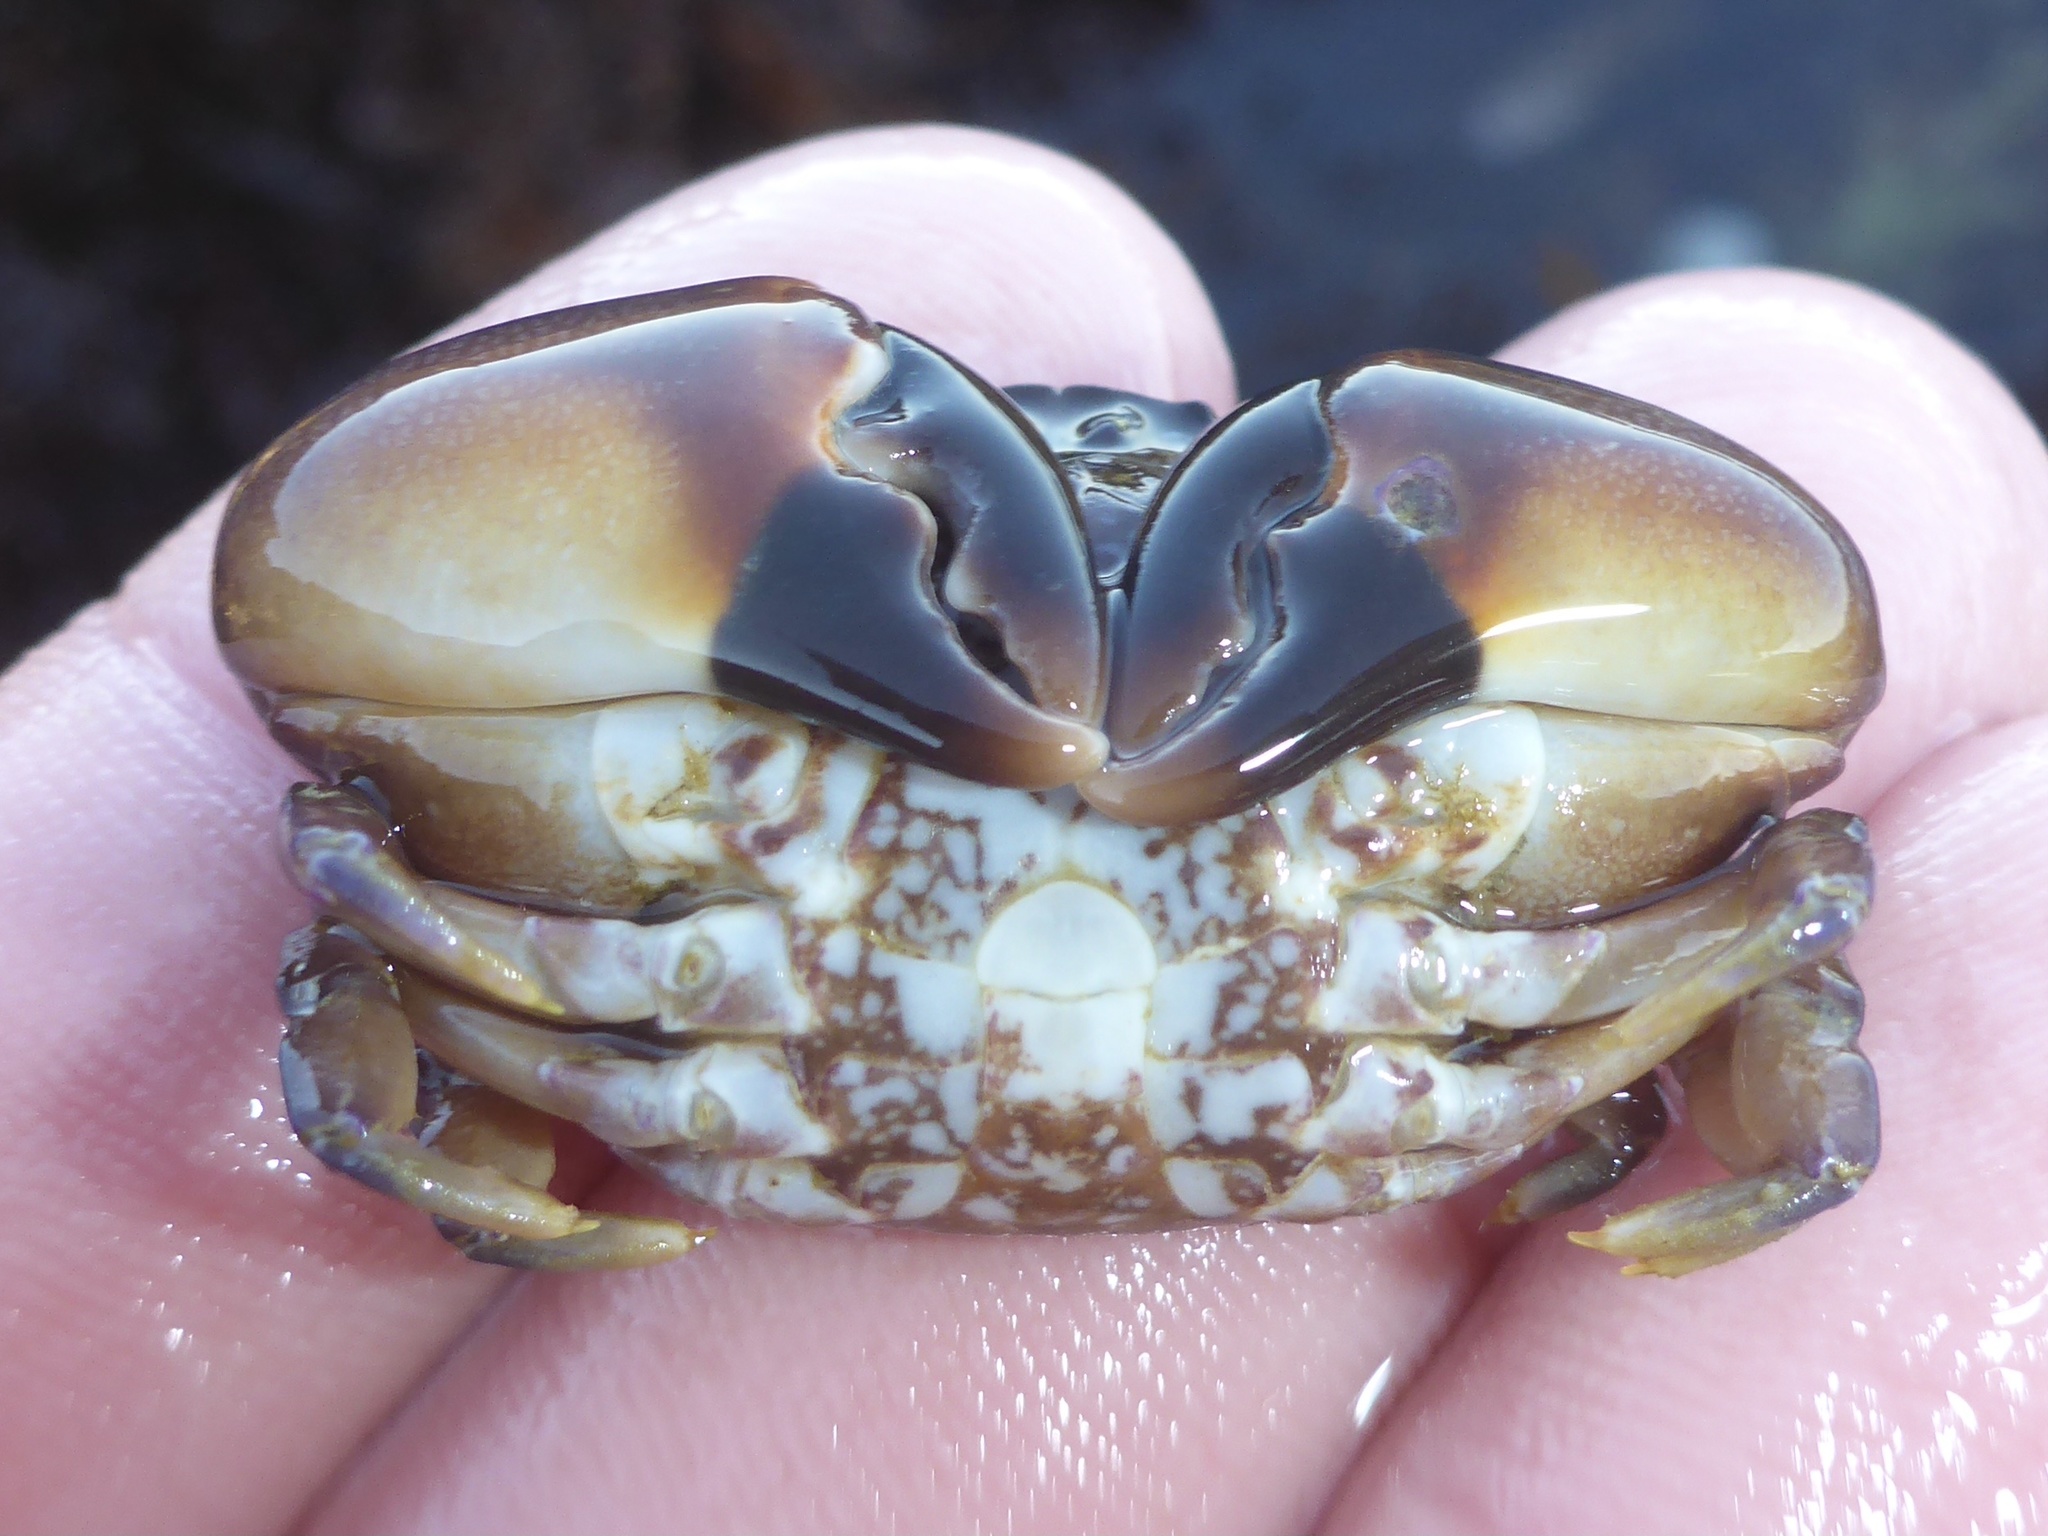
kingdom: Animalia
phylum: Arthropoda
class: Malacostraca
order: Decapoda
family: Panopeidae
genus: Lophopanopeus
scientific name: Lophopanopeus heathii
